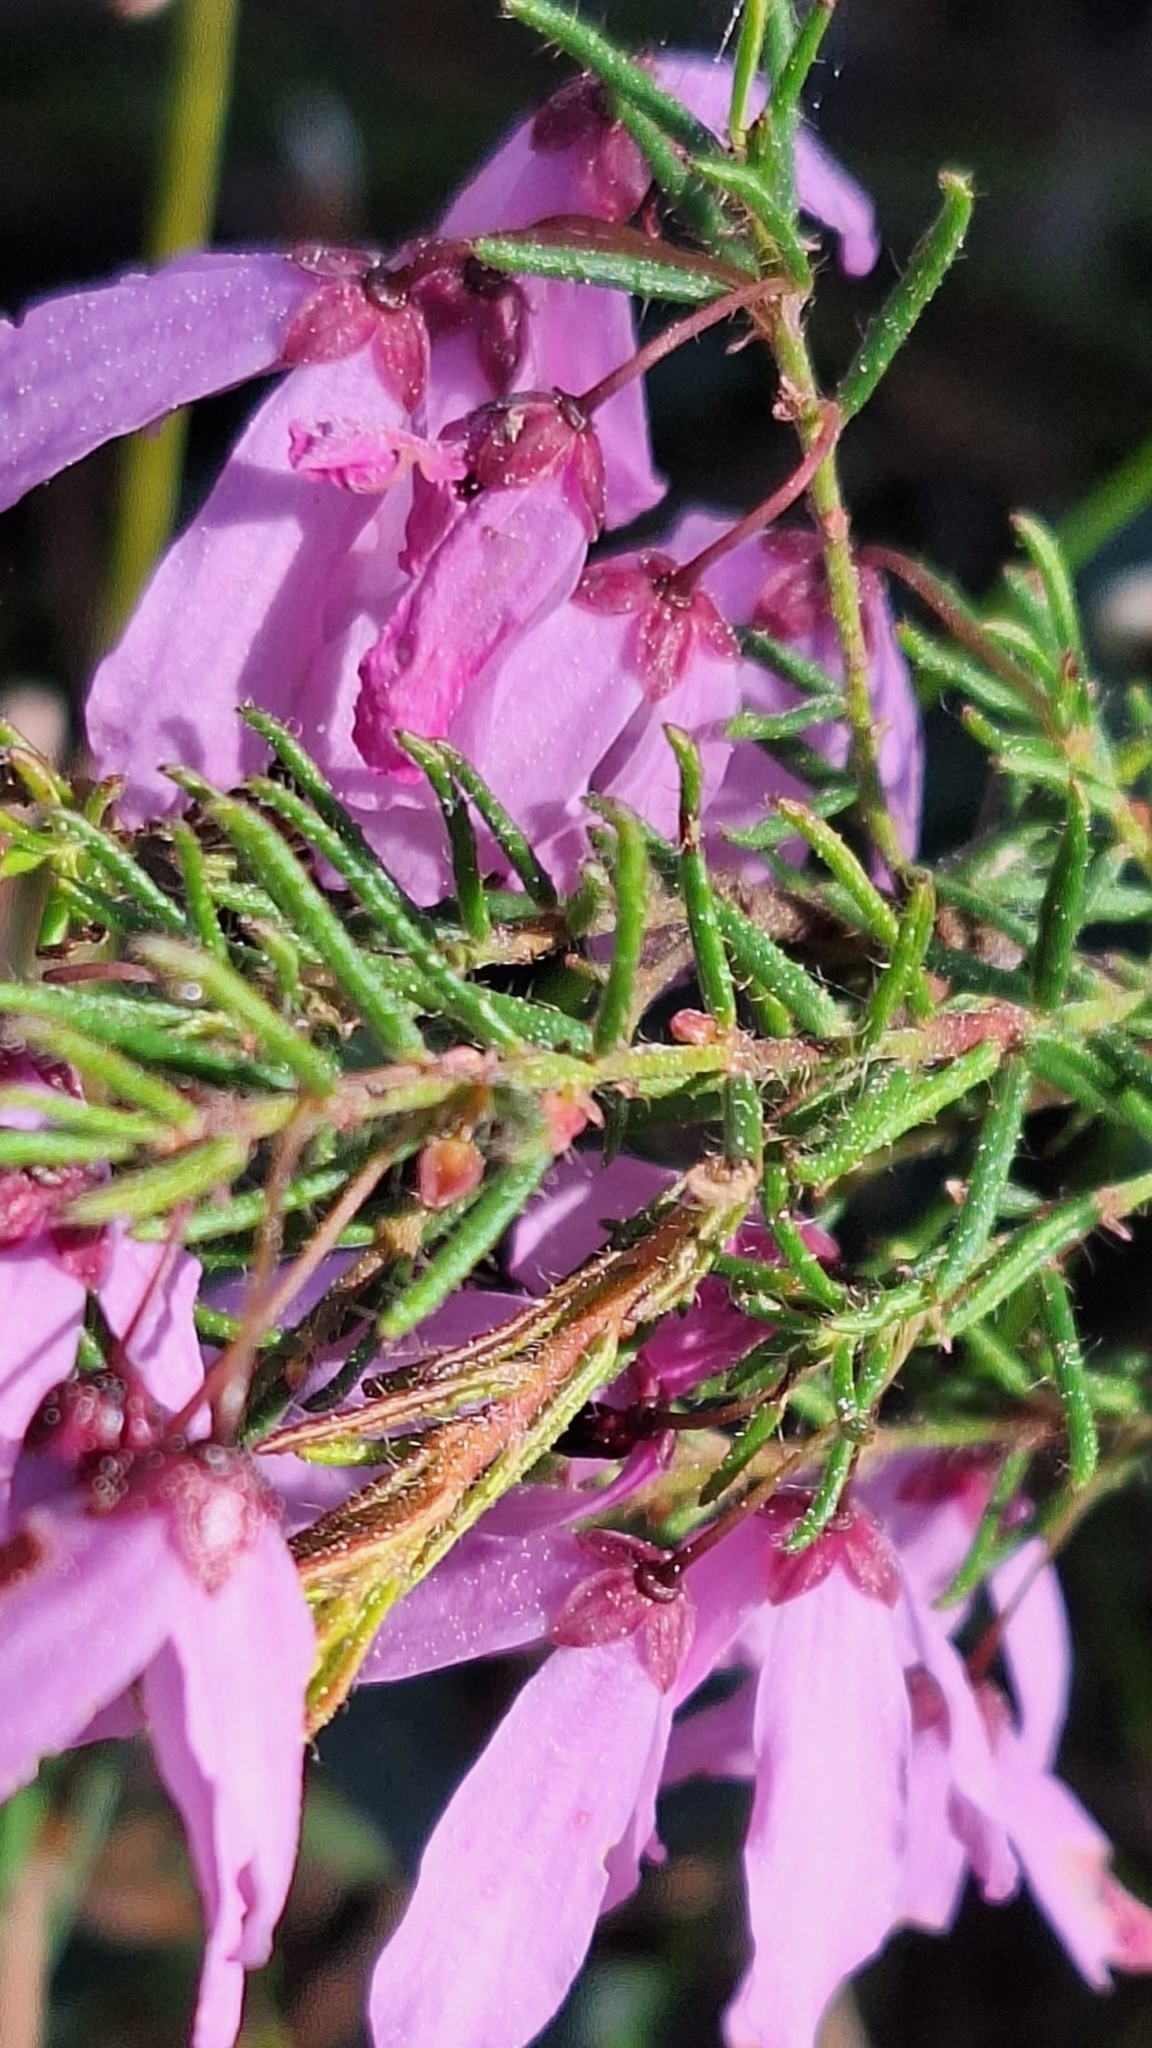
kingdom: Plantae
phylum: Tracheophyta
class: Magnoliopsida
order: Oxalidales
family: Elaeocarpaceae
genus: Tetratheca
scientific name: Tetratheca pilosa
